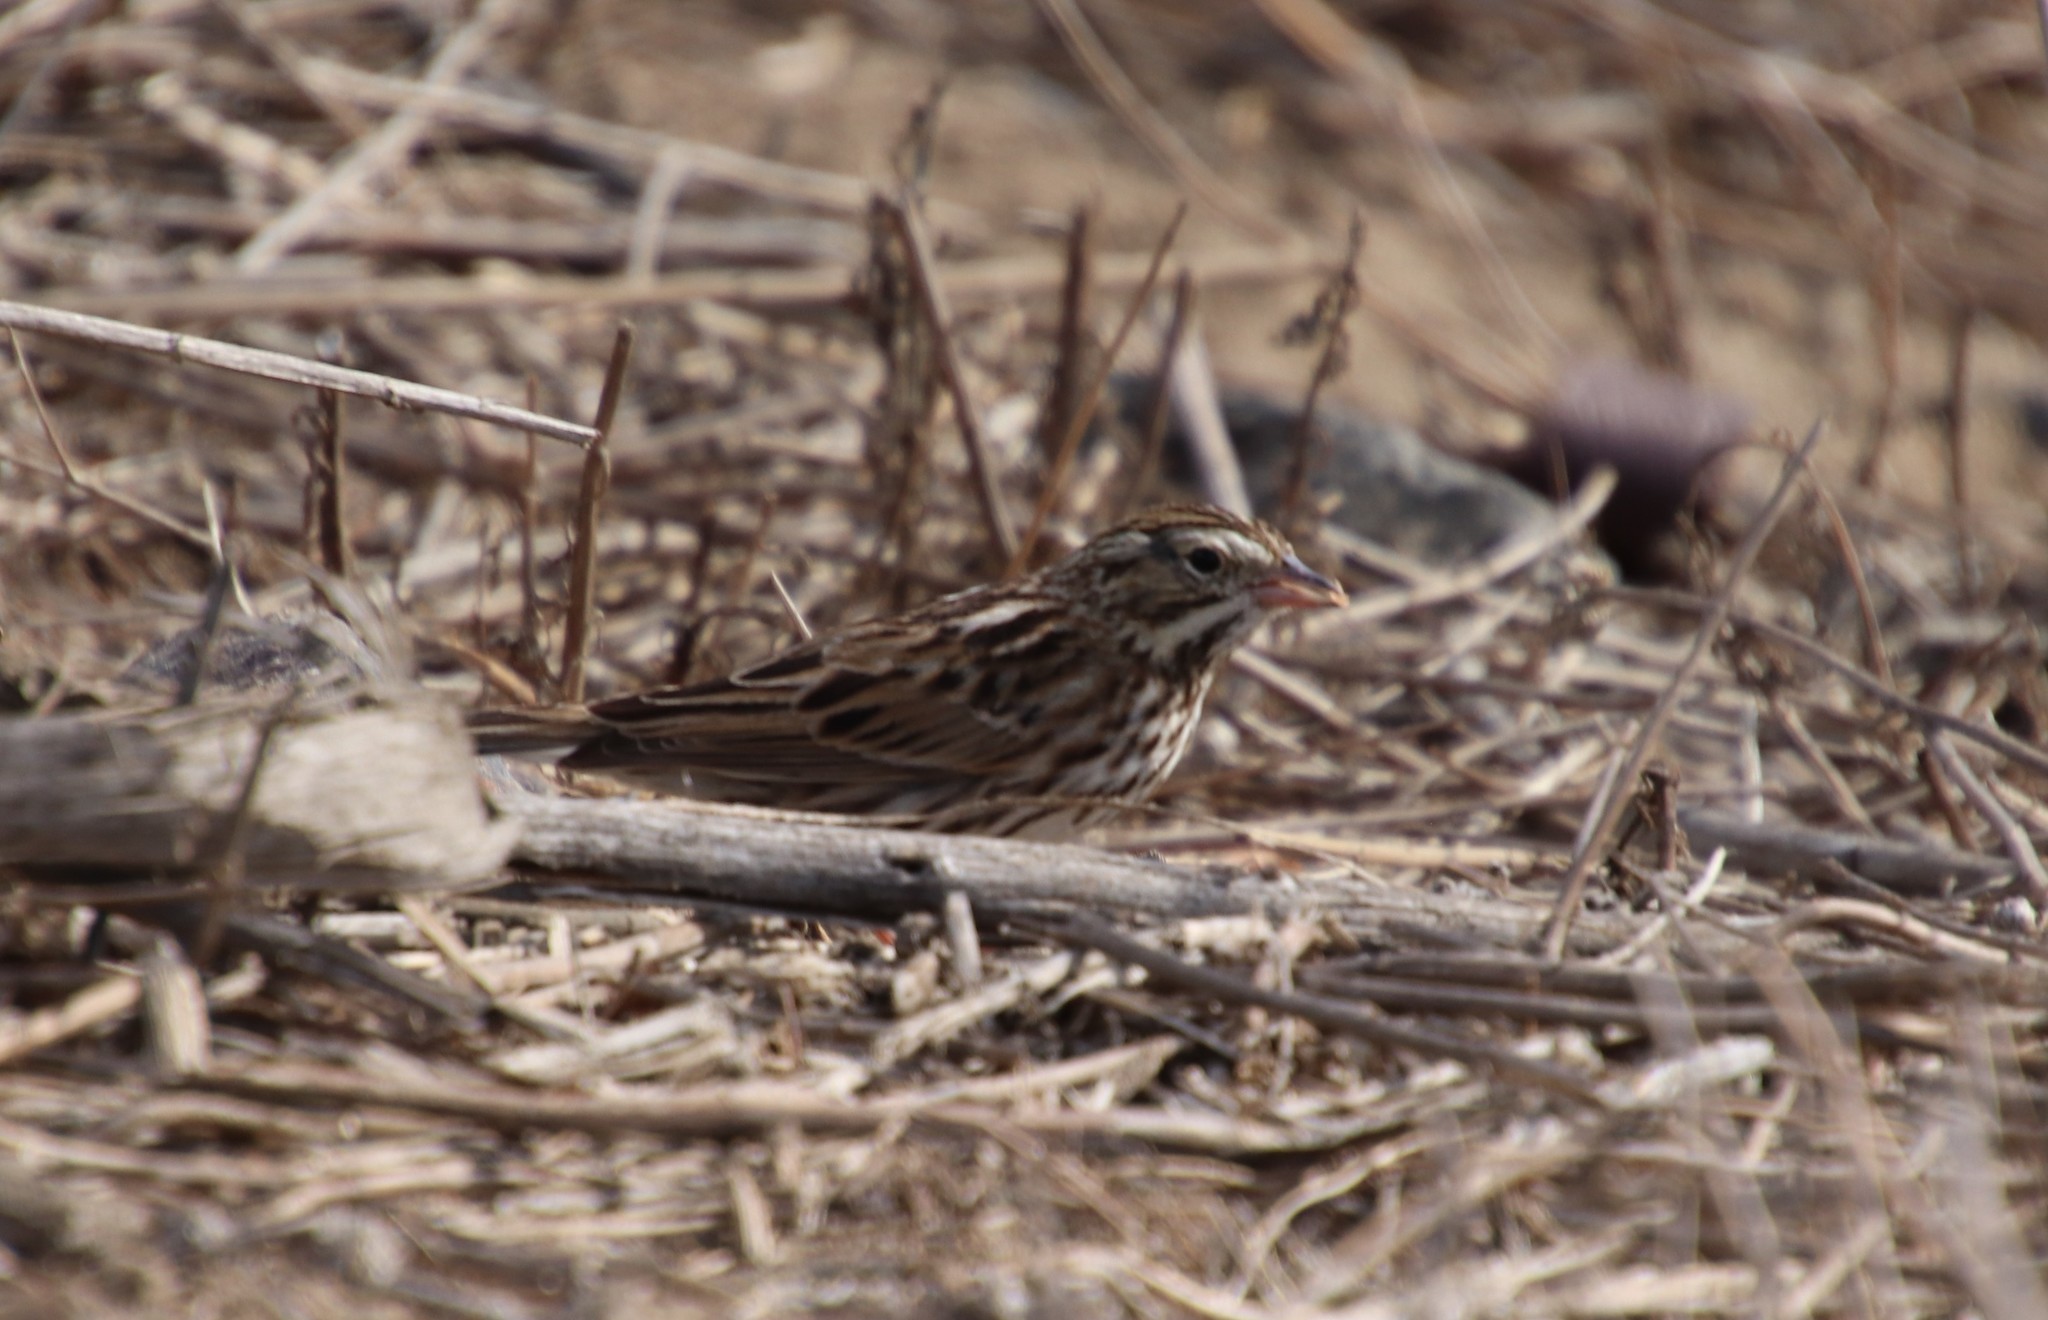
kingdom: Animalia
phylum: Chordata
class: Aves
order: Passeriformes
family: Passerellidae
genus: Passerculus
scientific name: Passerculus sandwichensis
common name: Savannah sparrow
